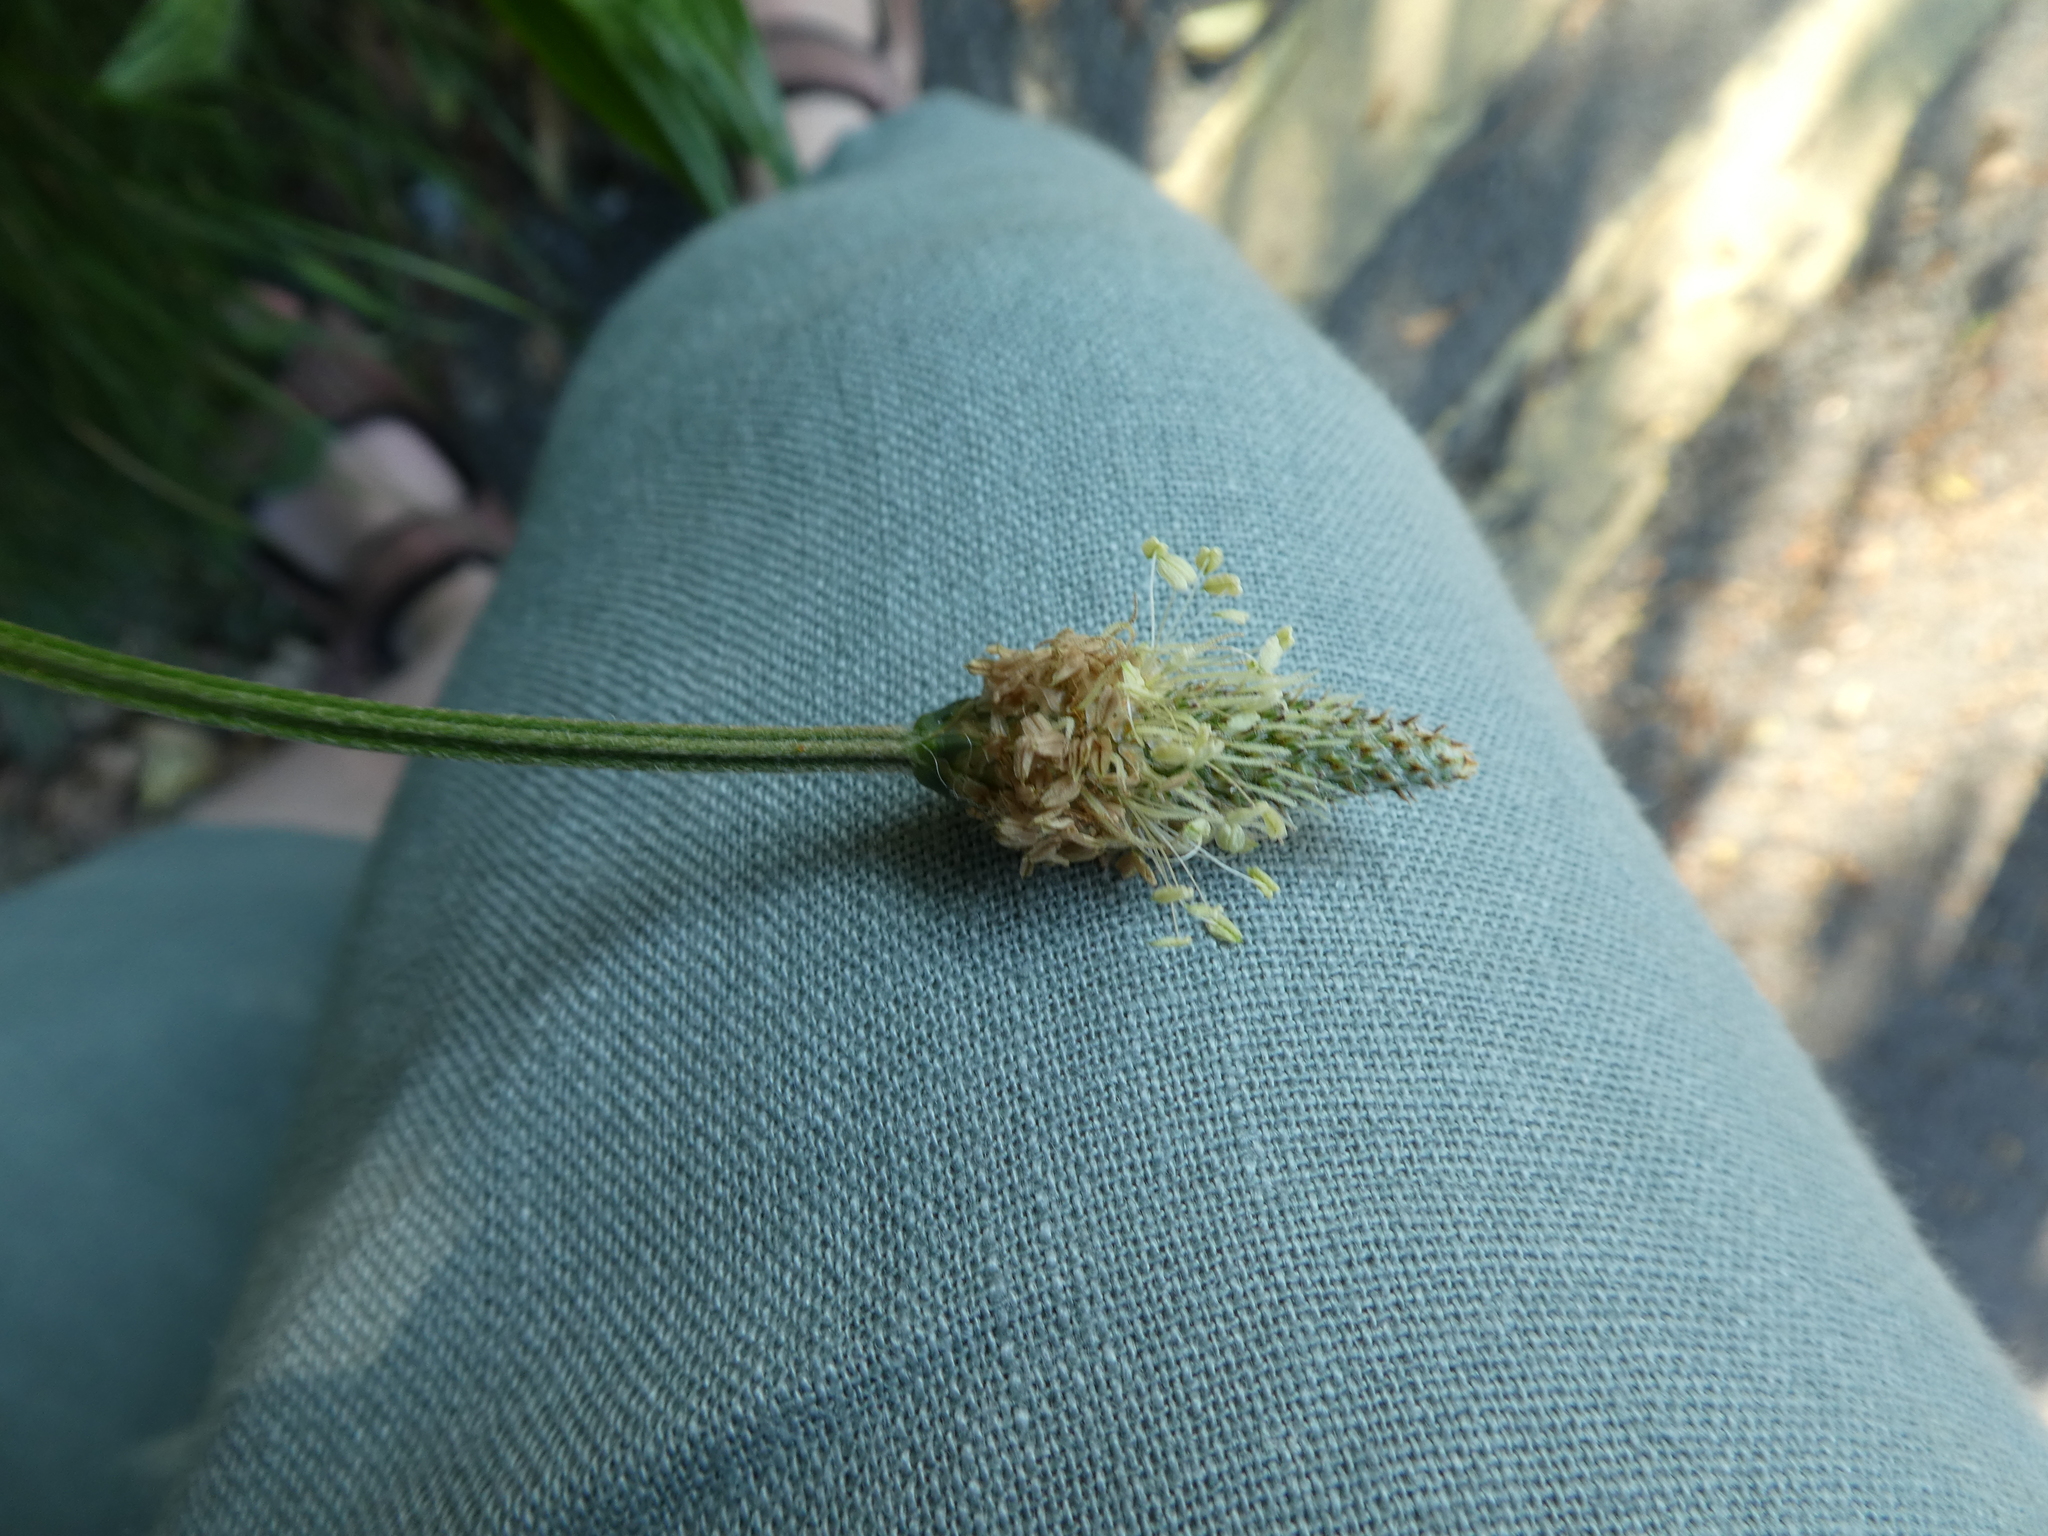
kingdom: Plantae
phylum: Tracheophyta
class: Magnoliopsida
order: Lamiales
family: Plantaginaceae
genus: Plantago
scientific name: Plantago lanceolata
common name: Ribwort plantain
